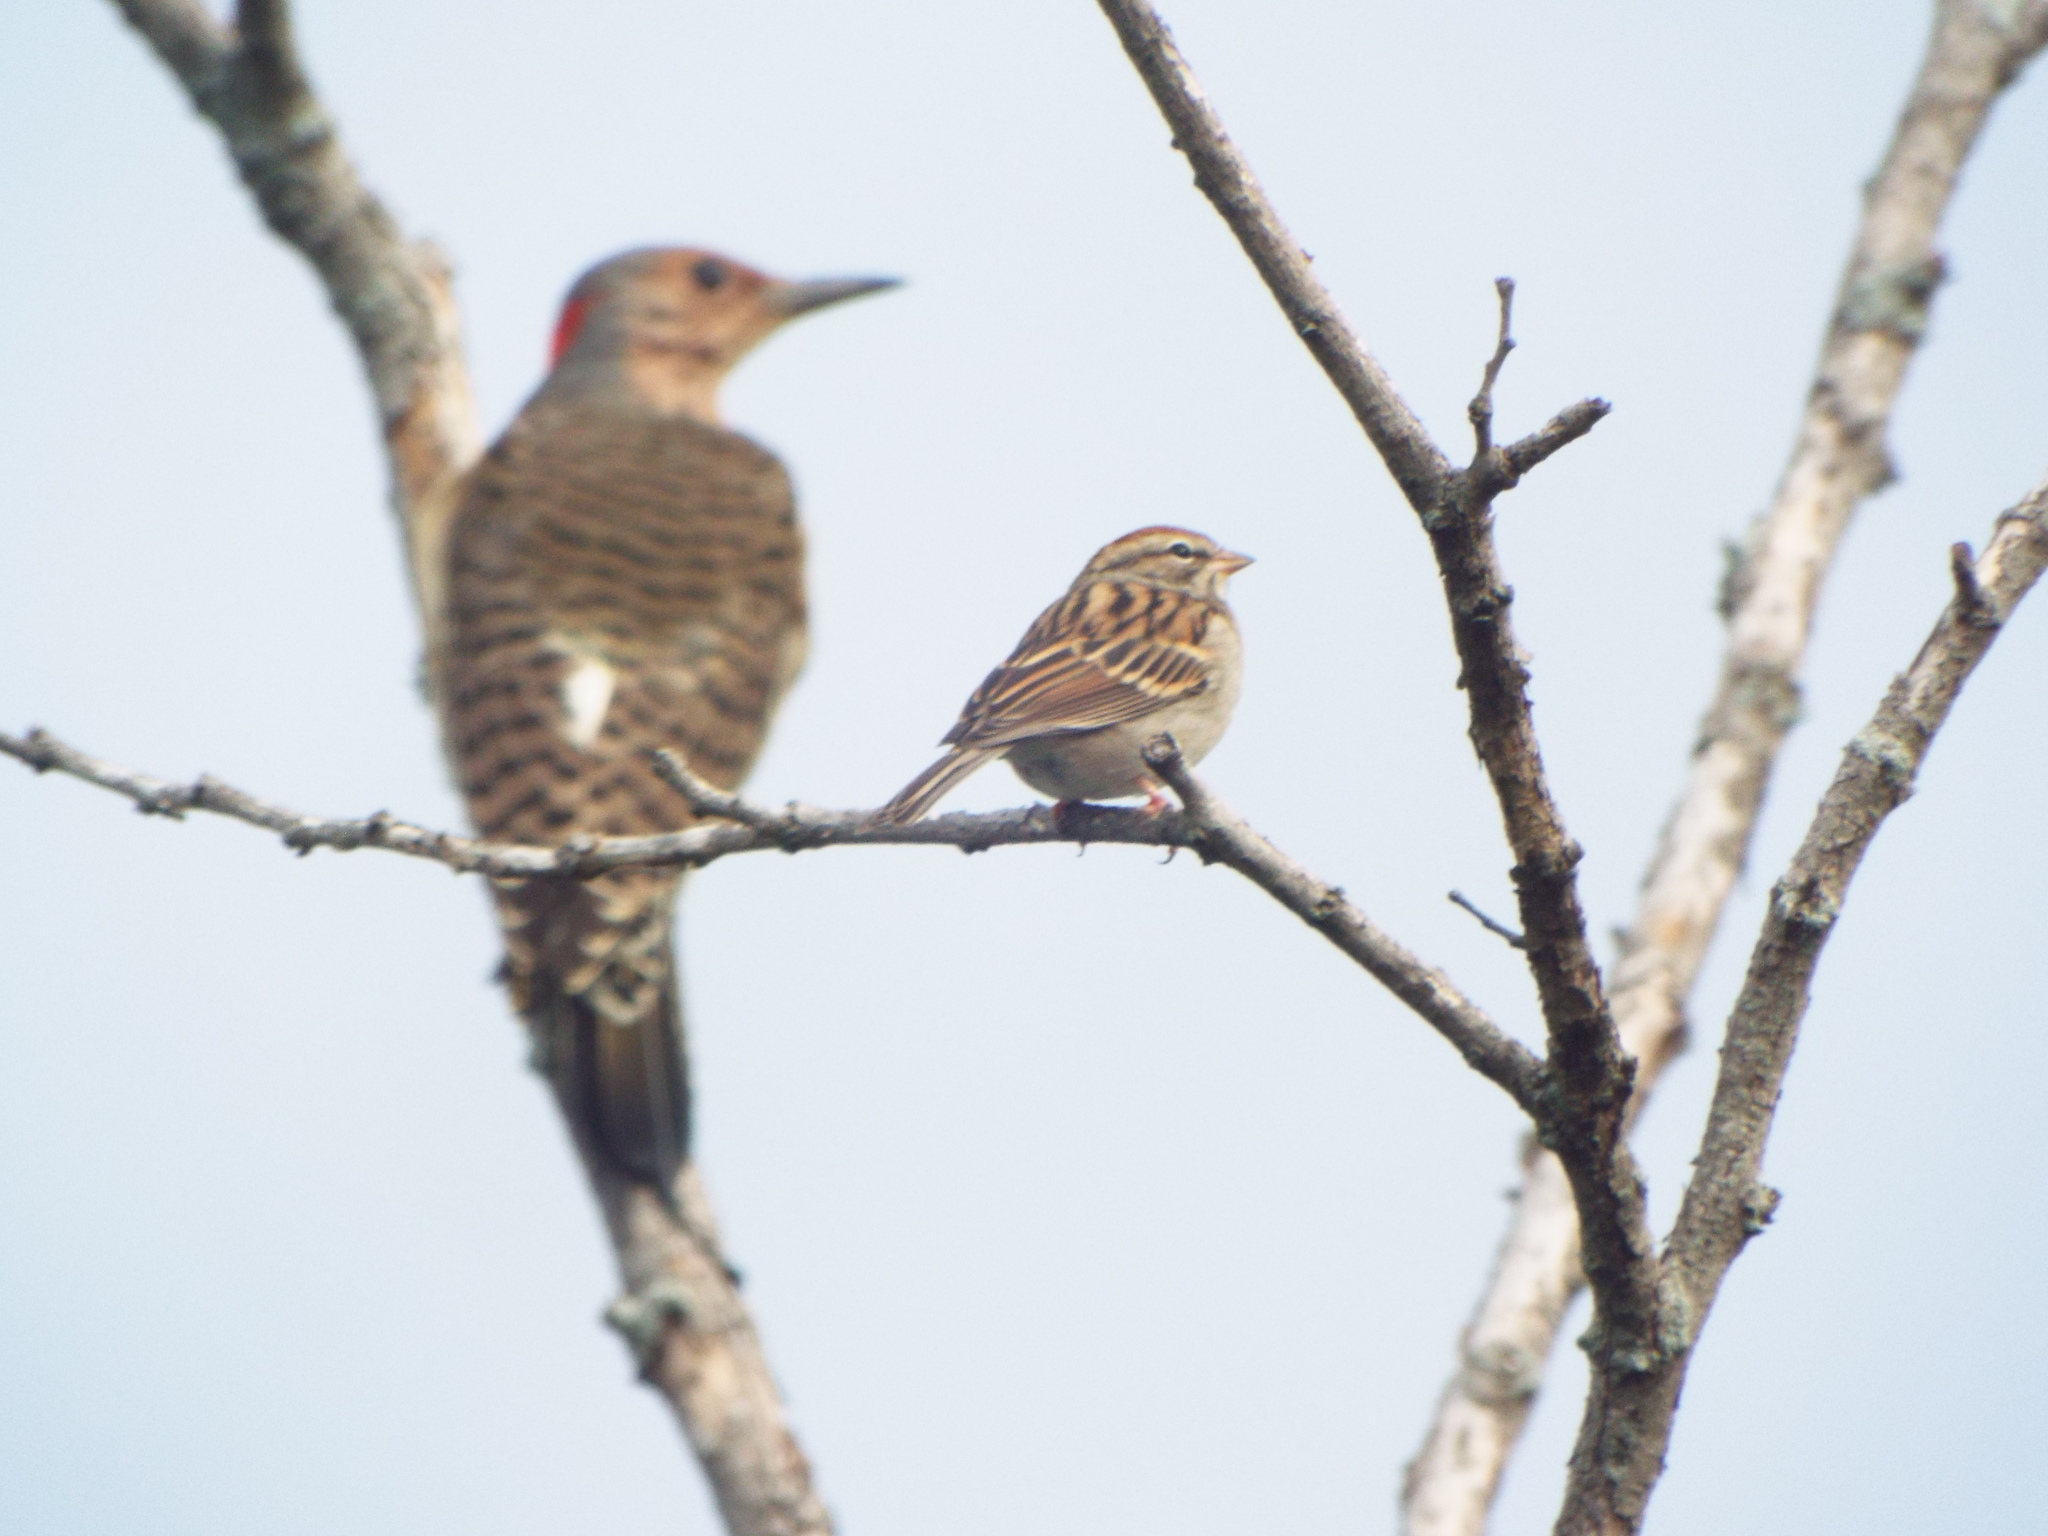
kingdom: Animalia
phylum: Chordata
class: Aves
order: Passeriformes
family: Passerellidae
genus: Spizella
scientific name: Spizella passerina
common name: Chipping sparrow
